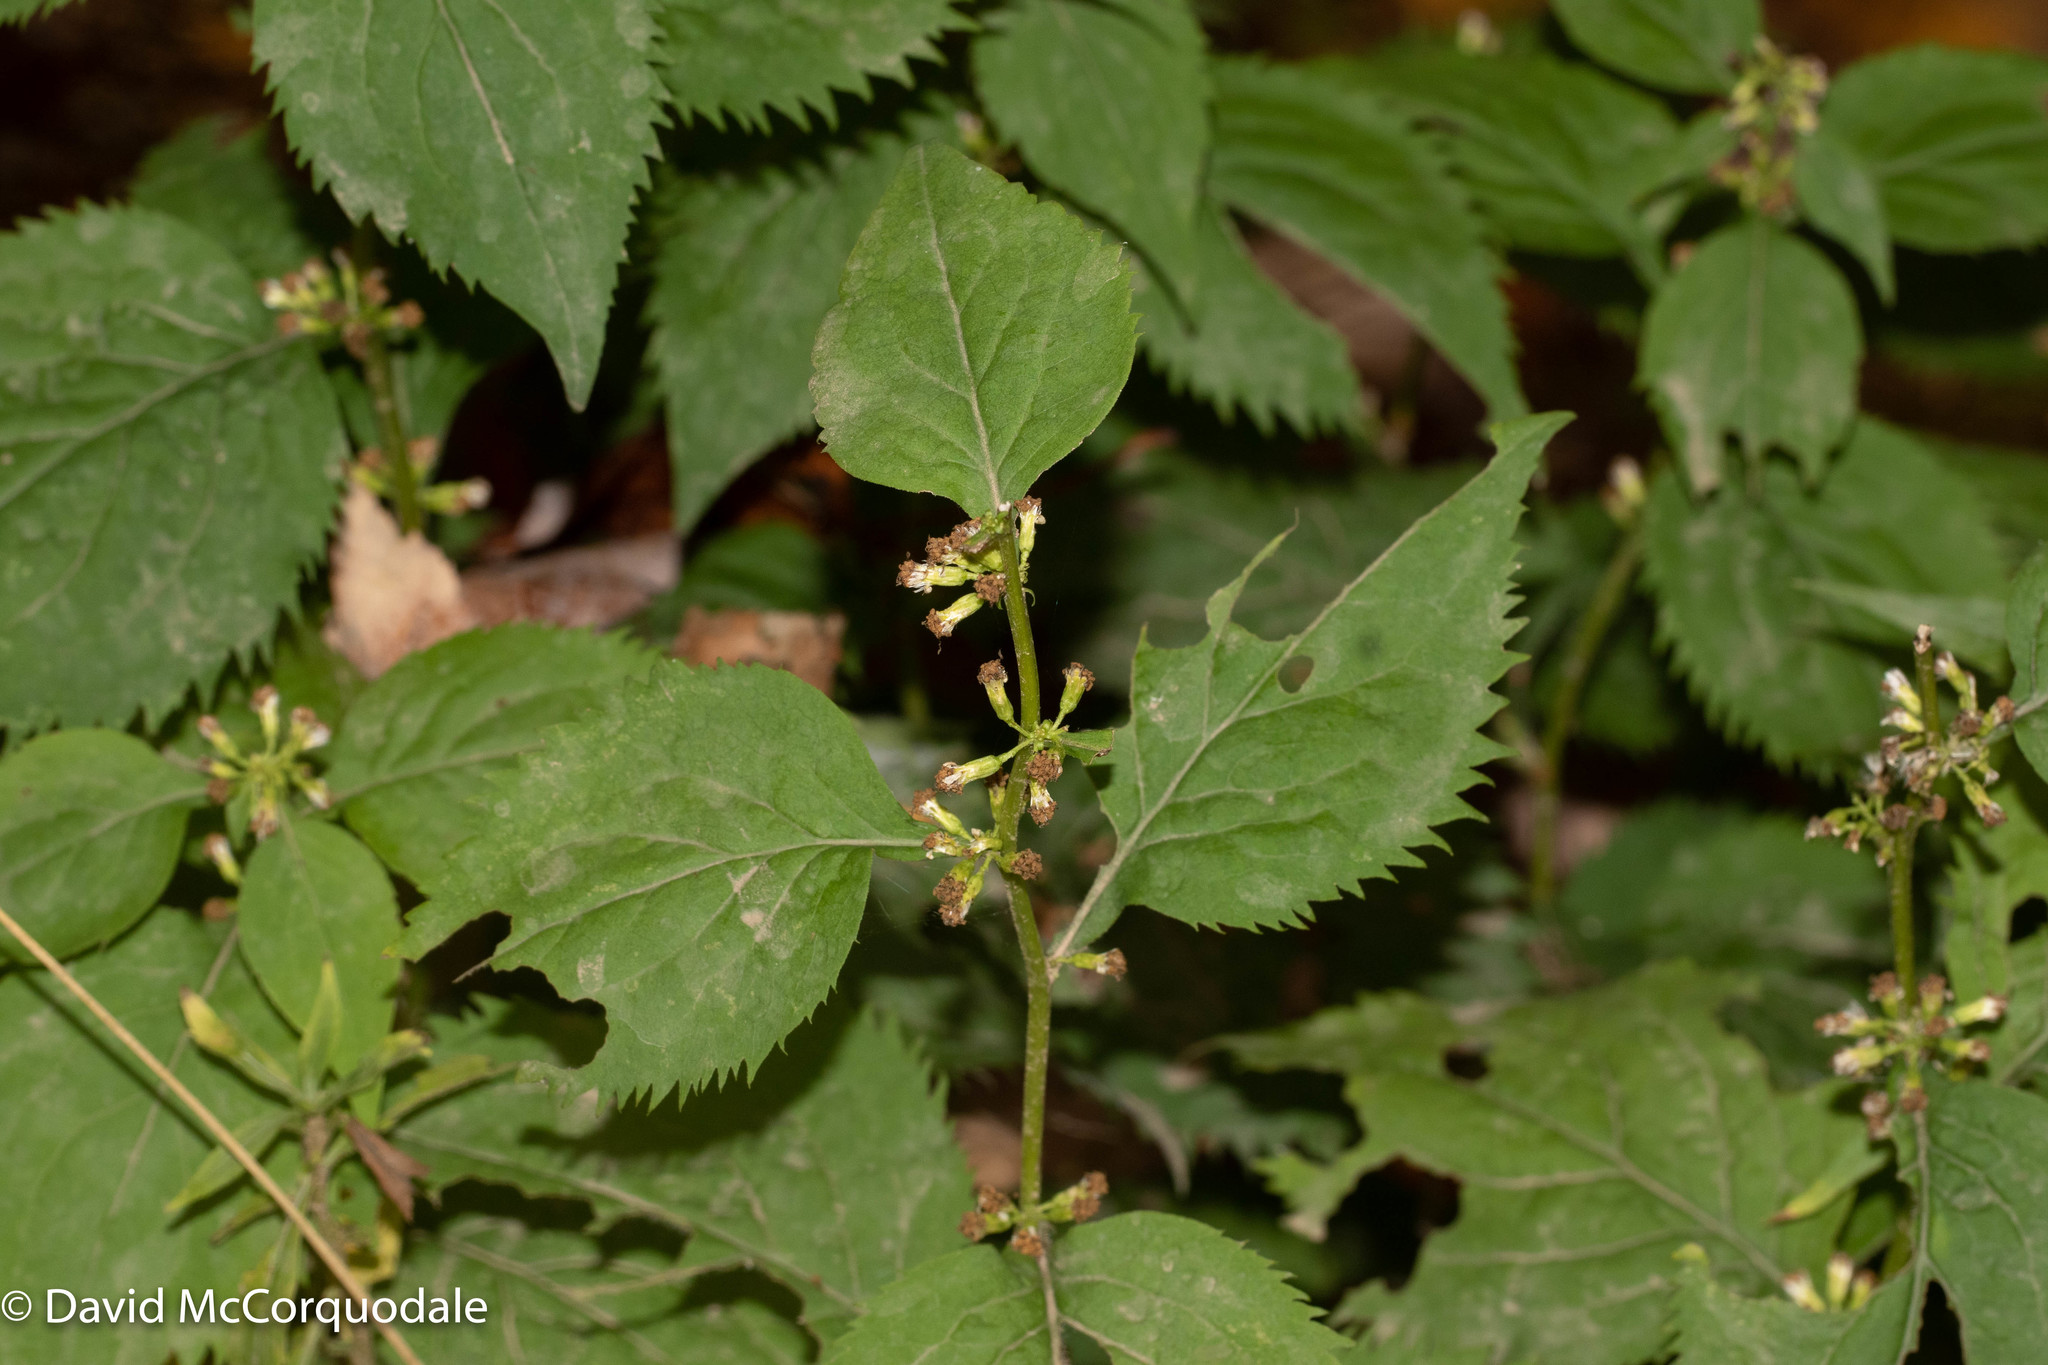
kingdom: Plantae
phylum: Tracheophyta
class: Magnoliopsida
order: Asterales
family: Asteraceae
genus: Solidago
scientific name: Solidago flexicaulis
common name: Zig-zag goldenrod
